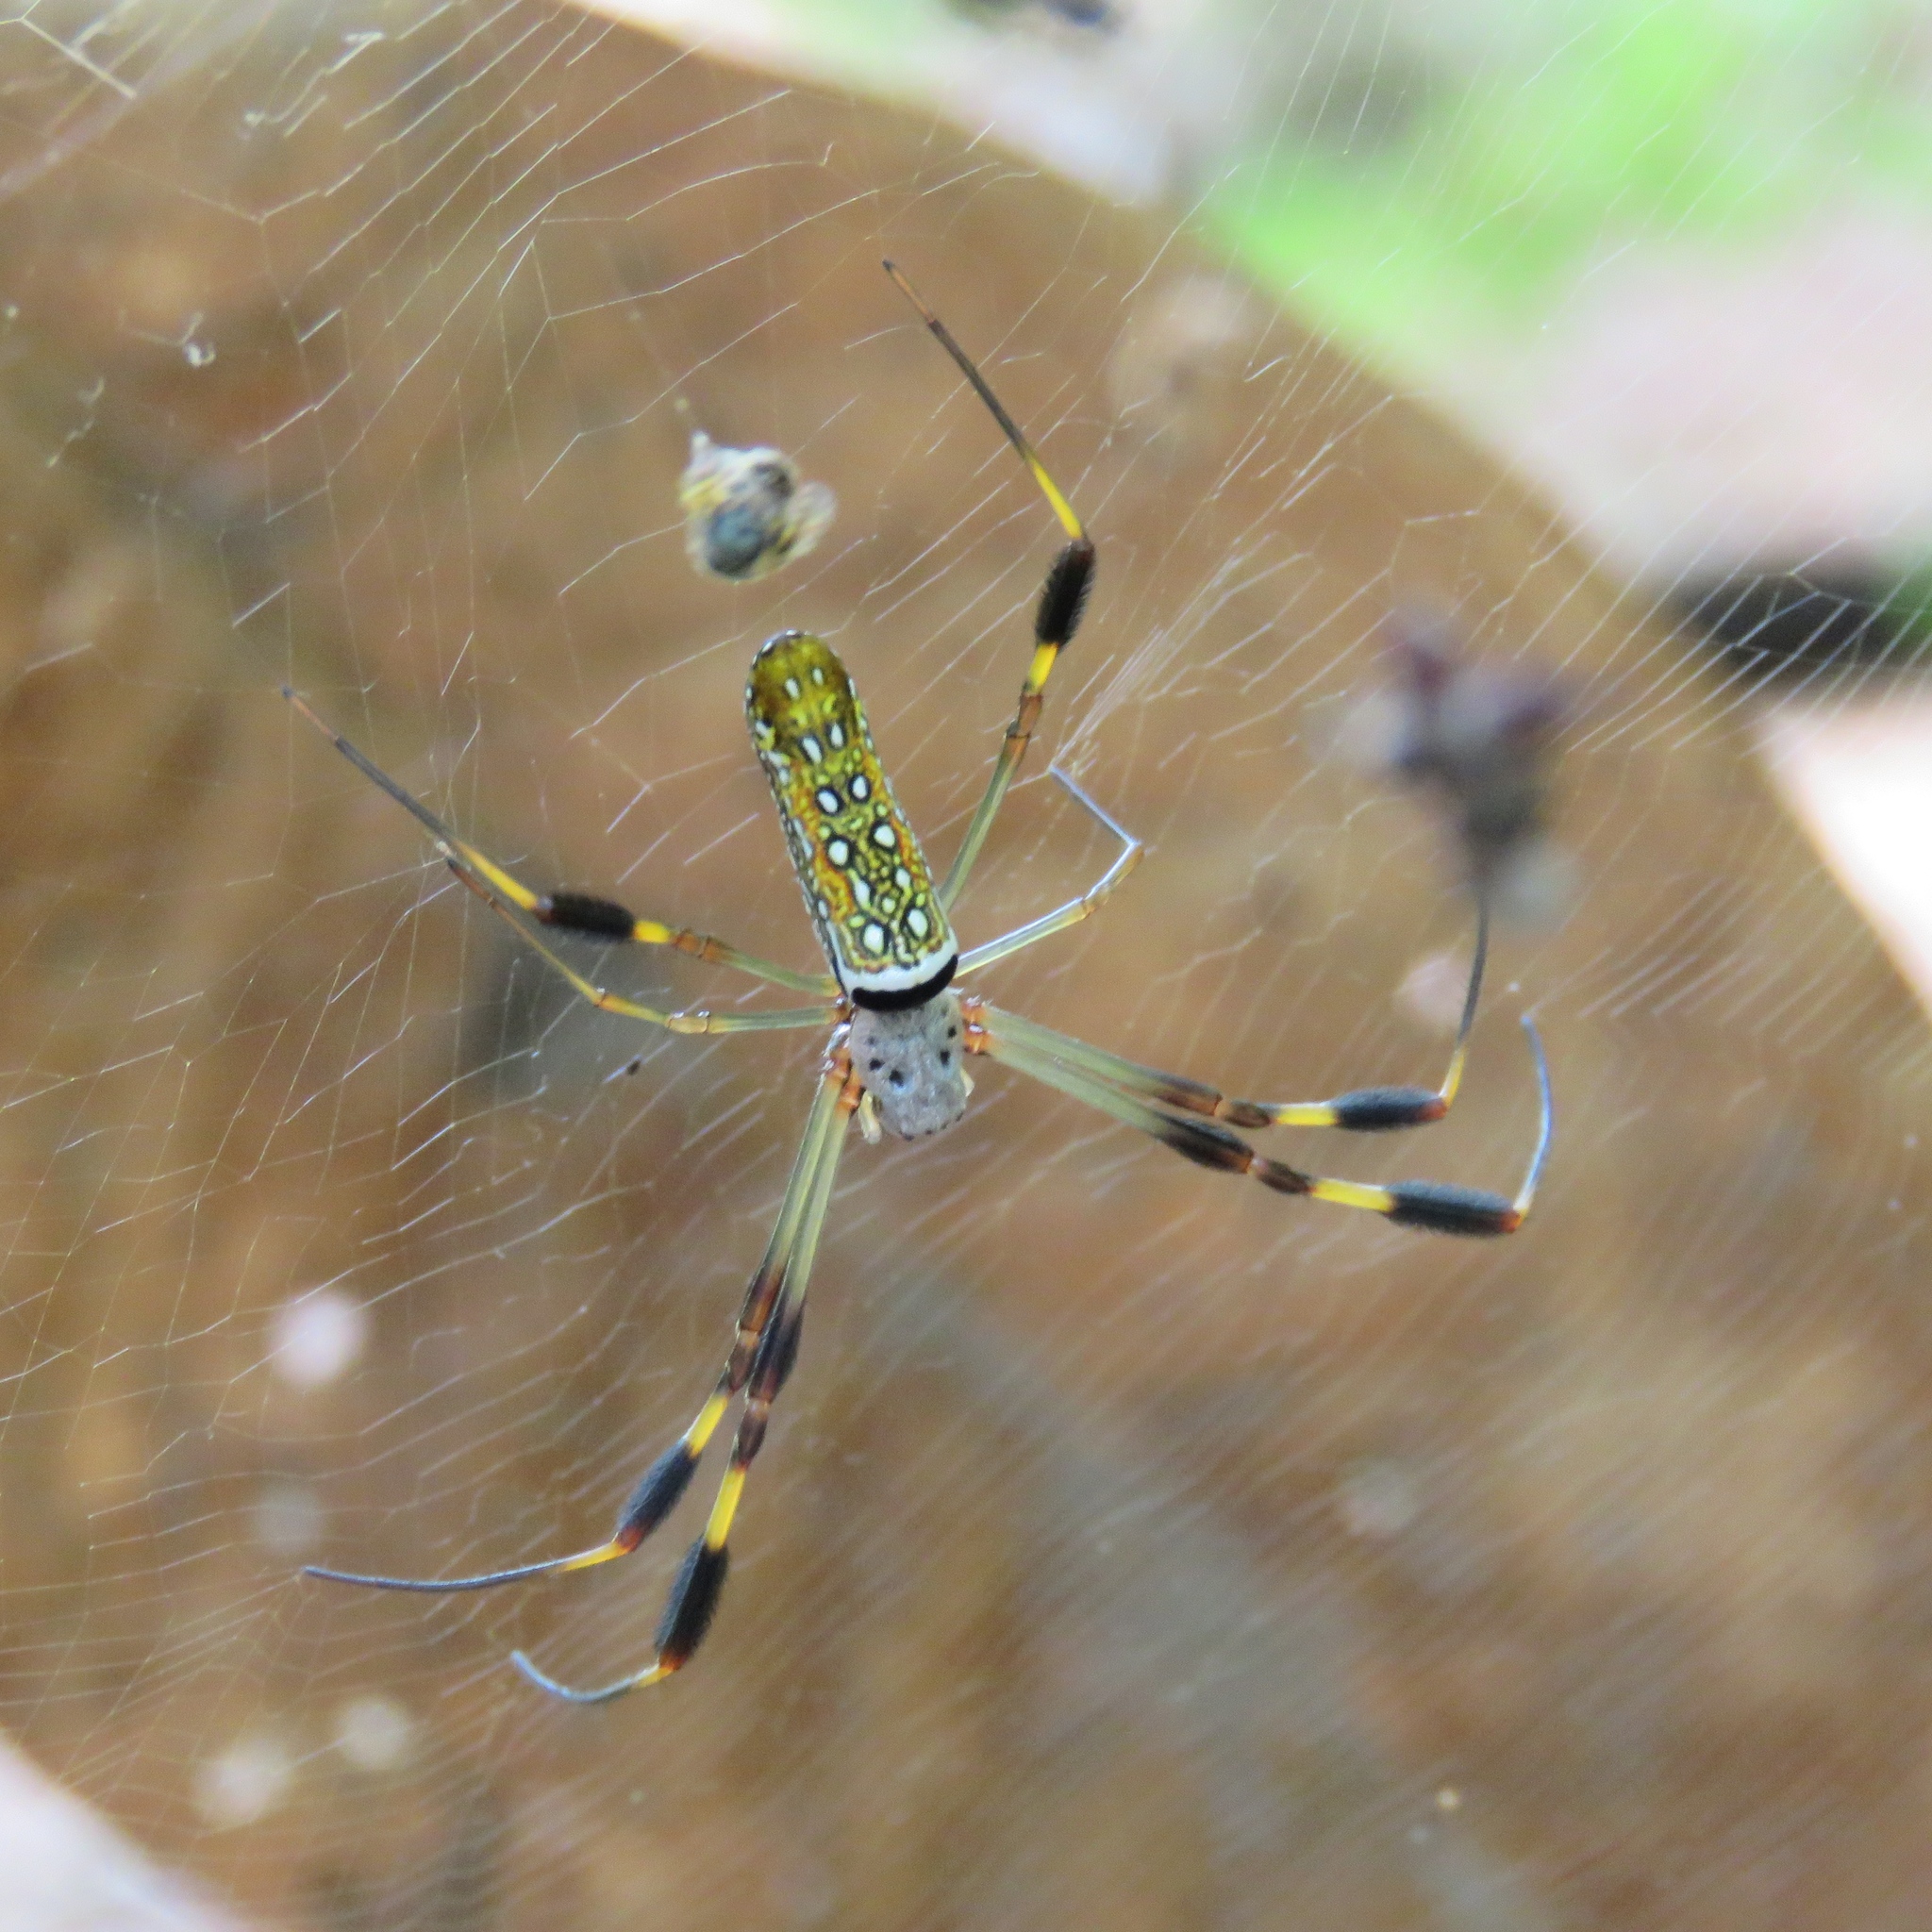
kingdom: Animalia
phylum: Arthropoda
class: Arachnida
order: Araneae
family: Araneidae
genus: Trichonephila
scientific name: Trichonephila clavipes
